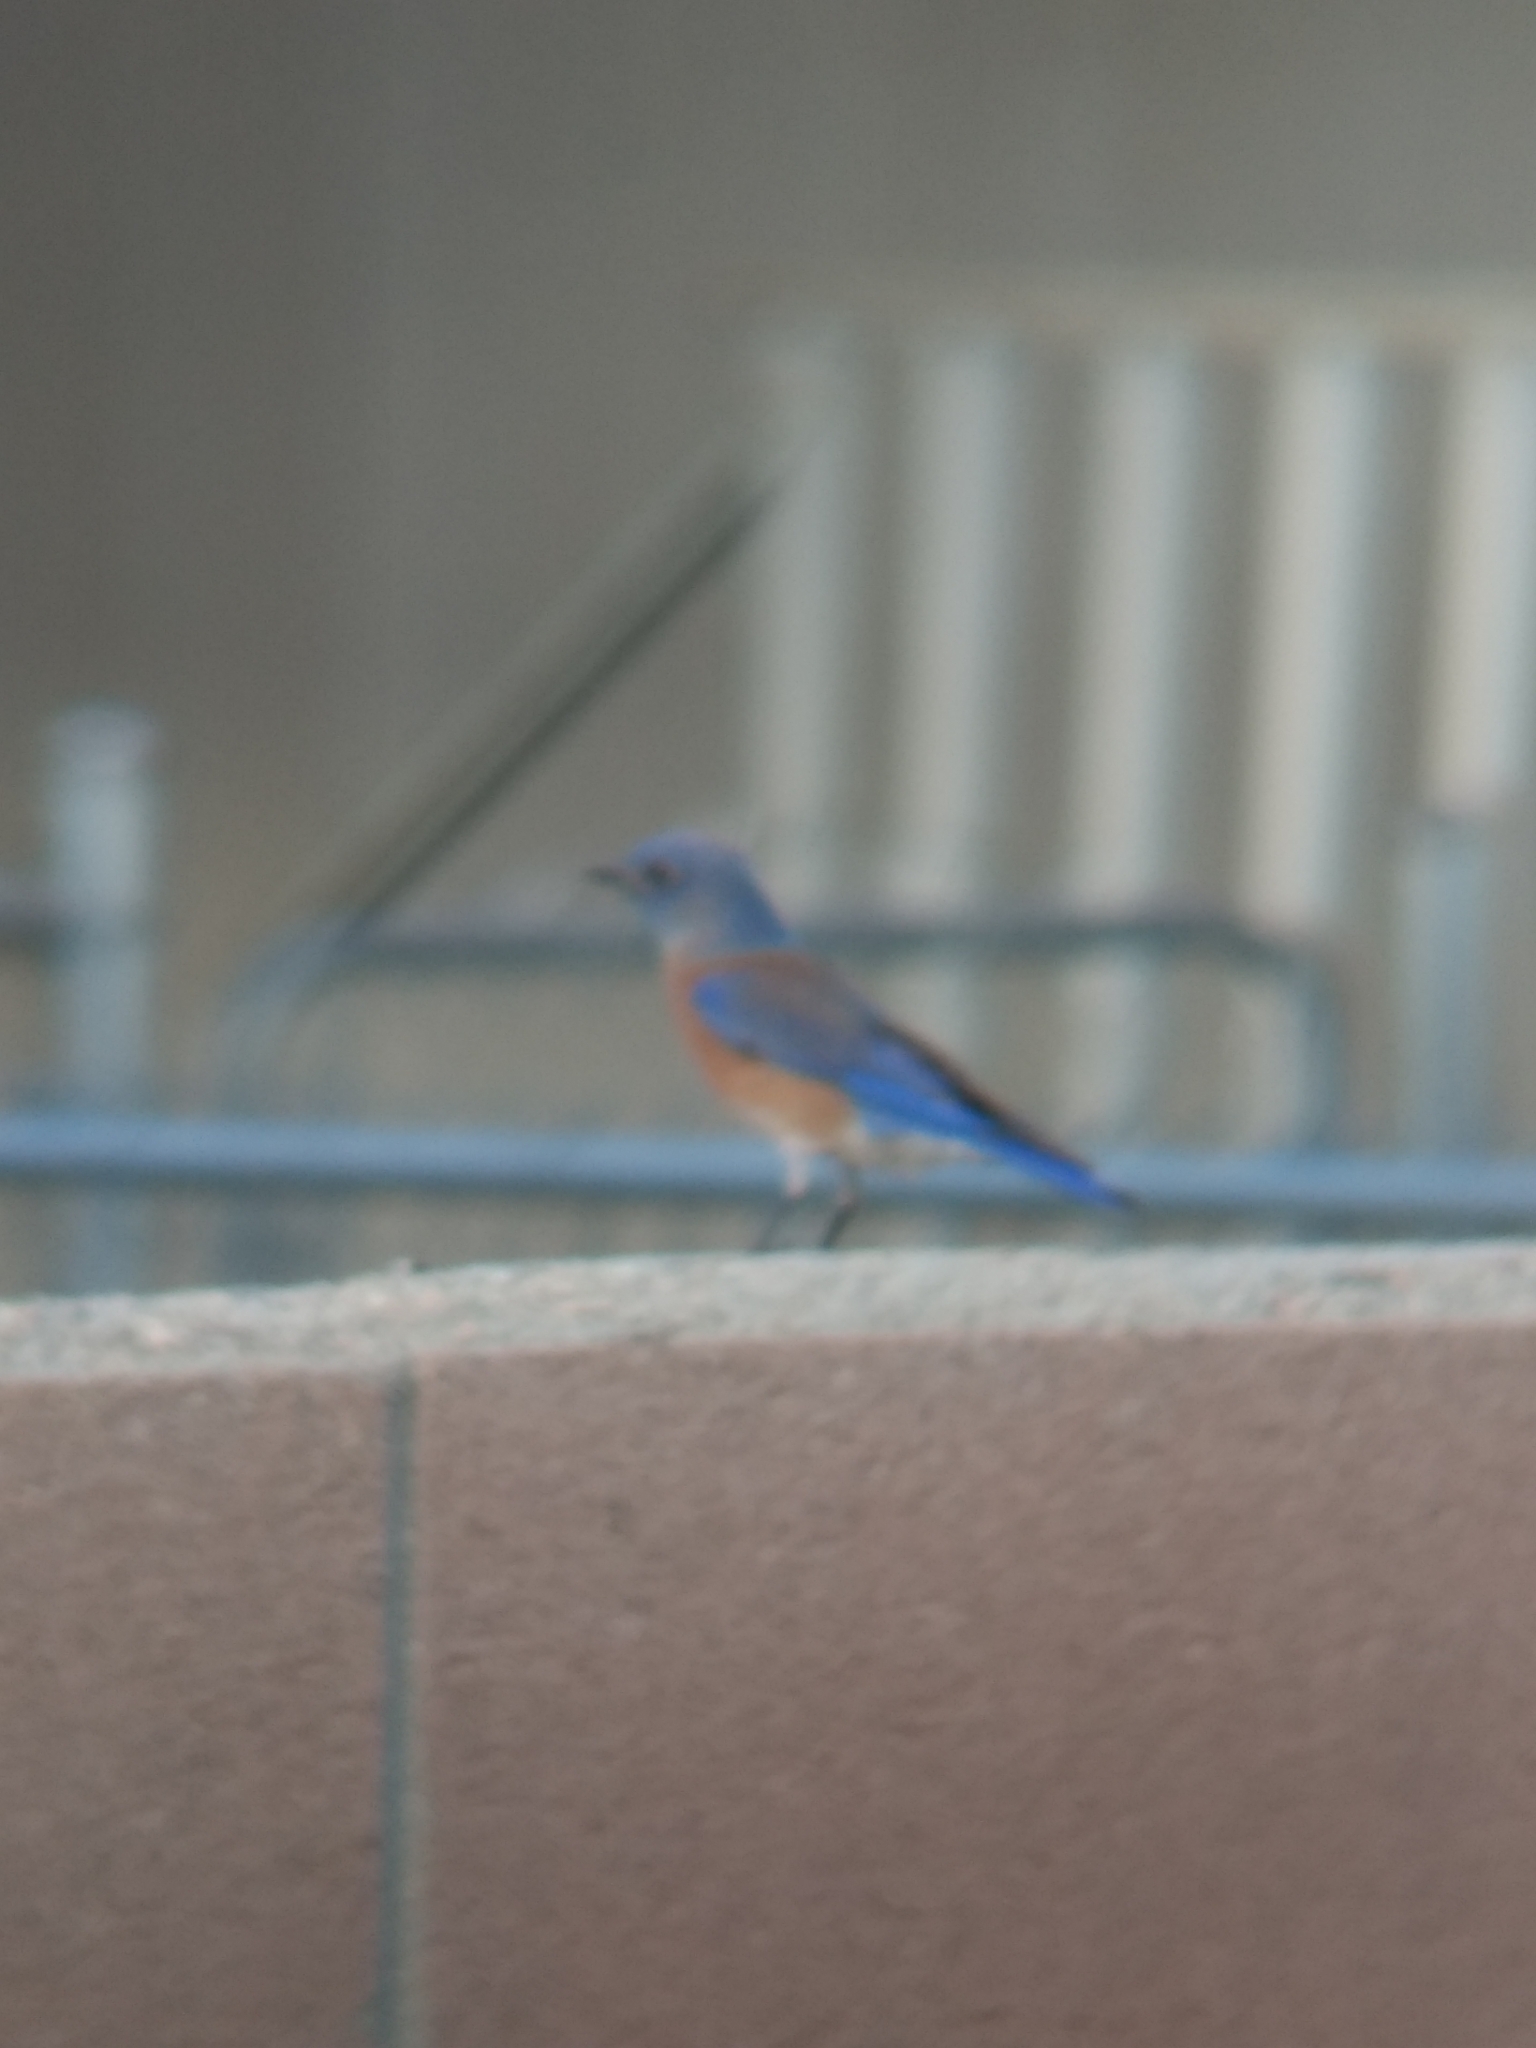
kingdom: Animalia
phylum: Chordata
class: Aves
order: Passeriformes
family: Turdidae
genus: Sialia
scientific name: Sialia mexicana
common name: Western bluebird
